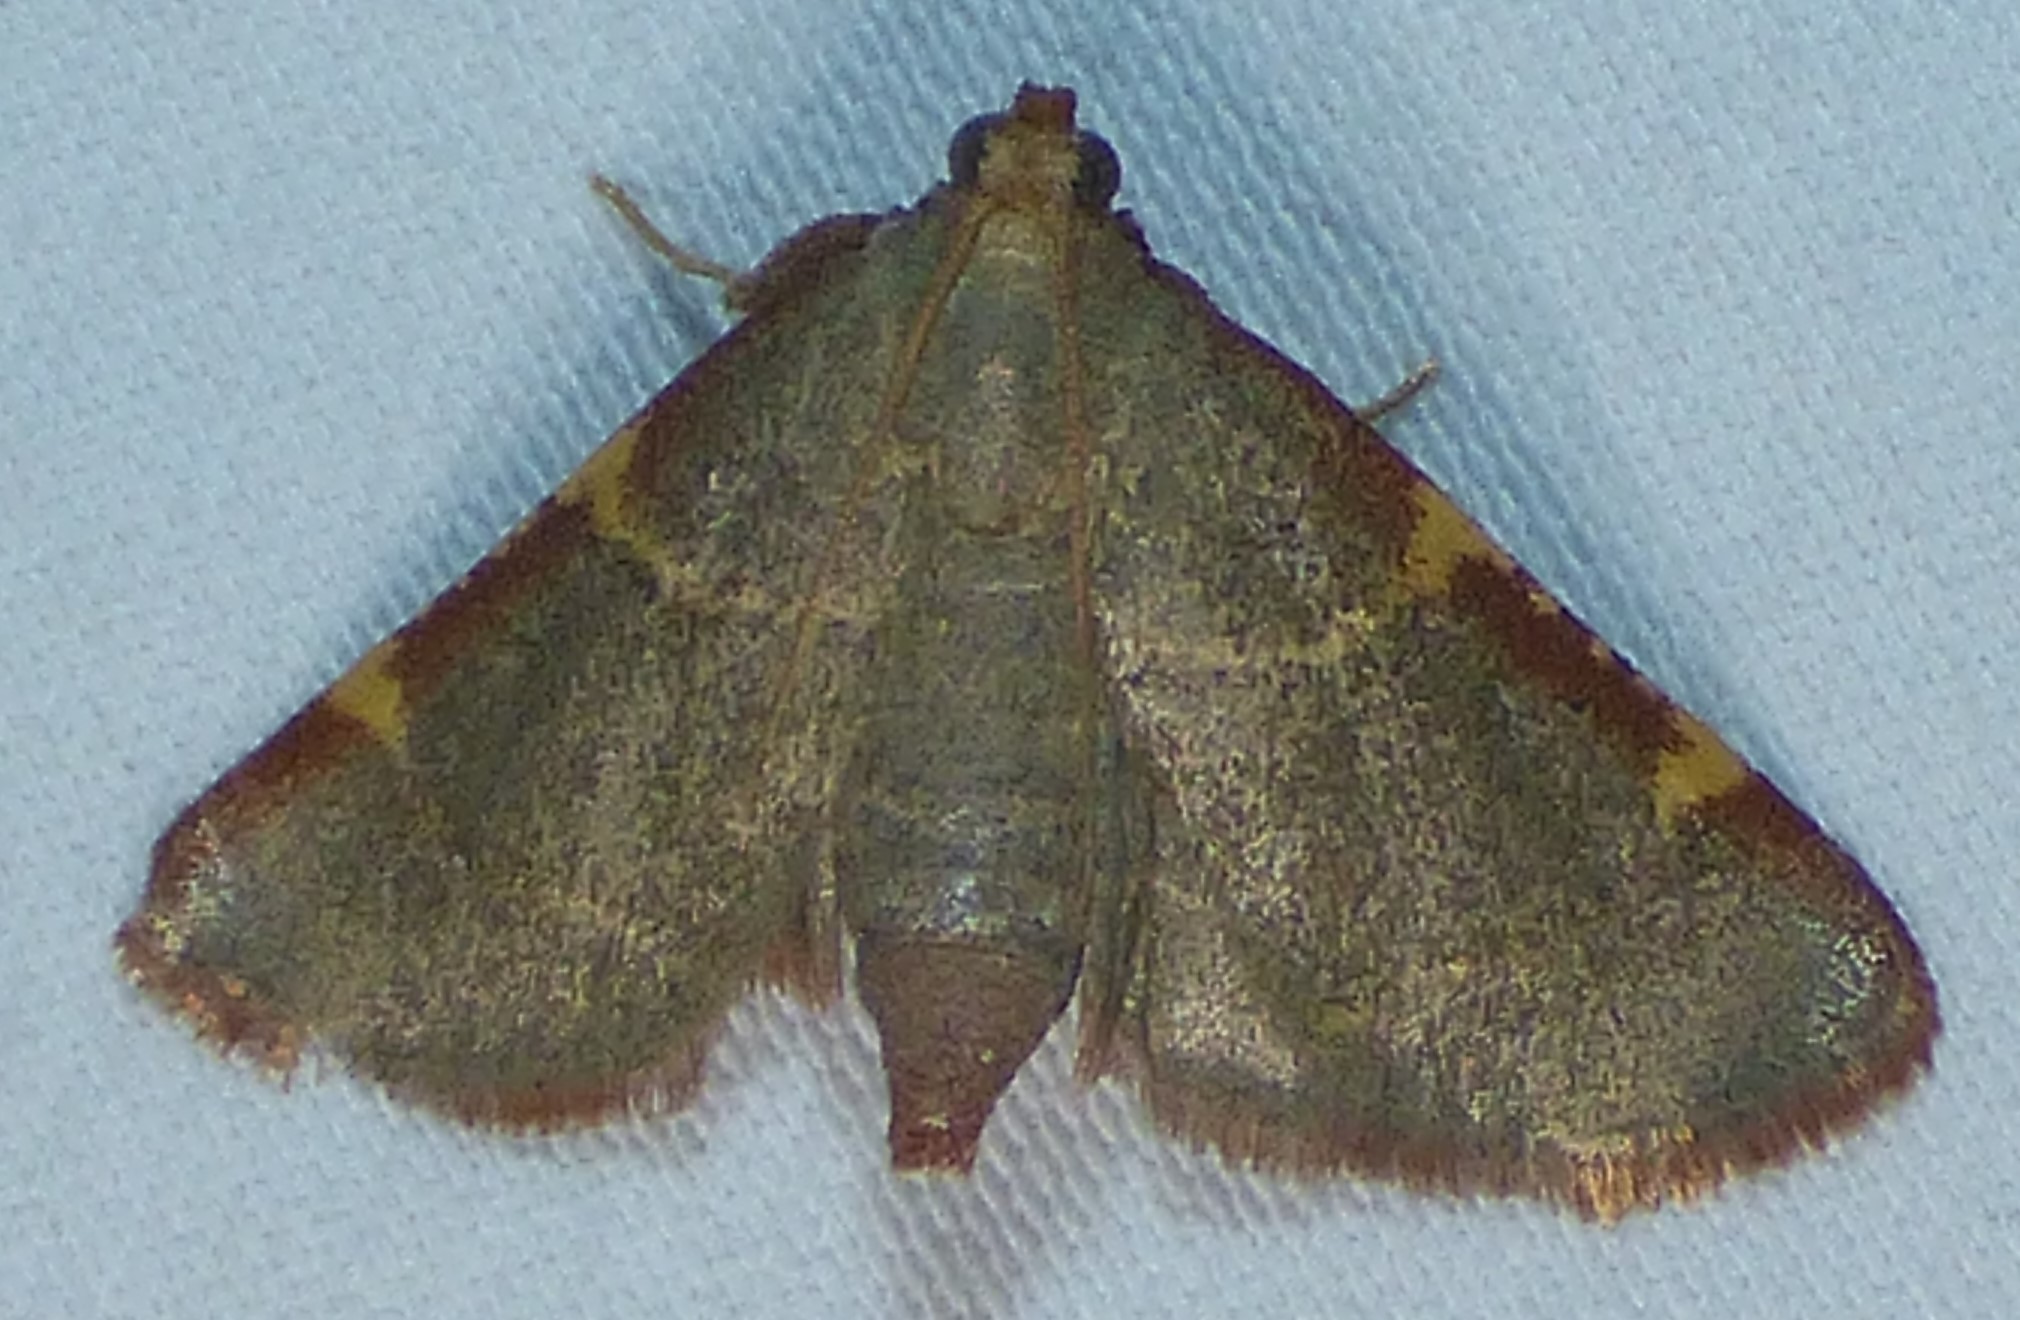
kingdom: Animalia
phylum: Arthropoda
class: Insecta
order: Lepidoptera
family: Pyralidae
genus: Hypsopygia
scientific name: Hypsopygia binodulalis
